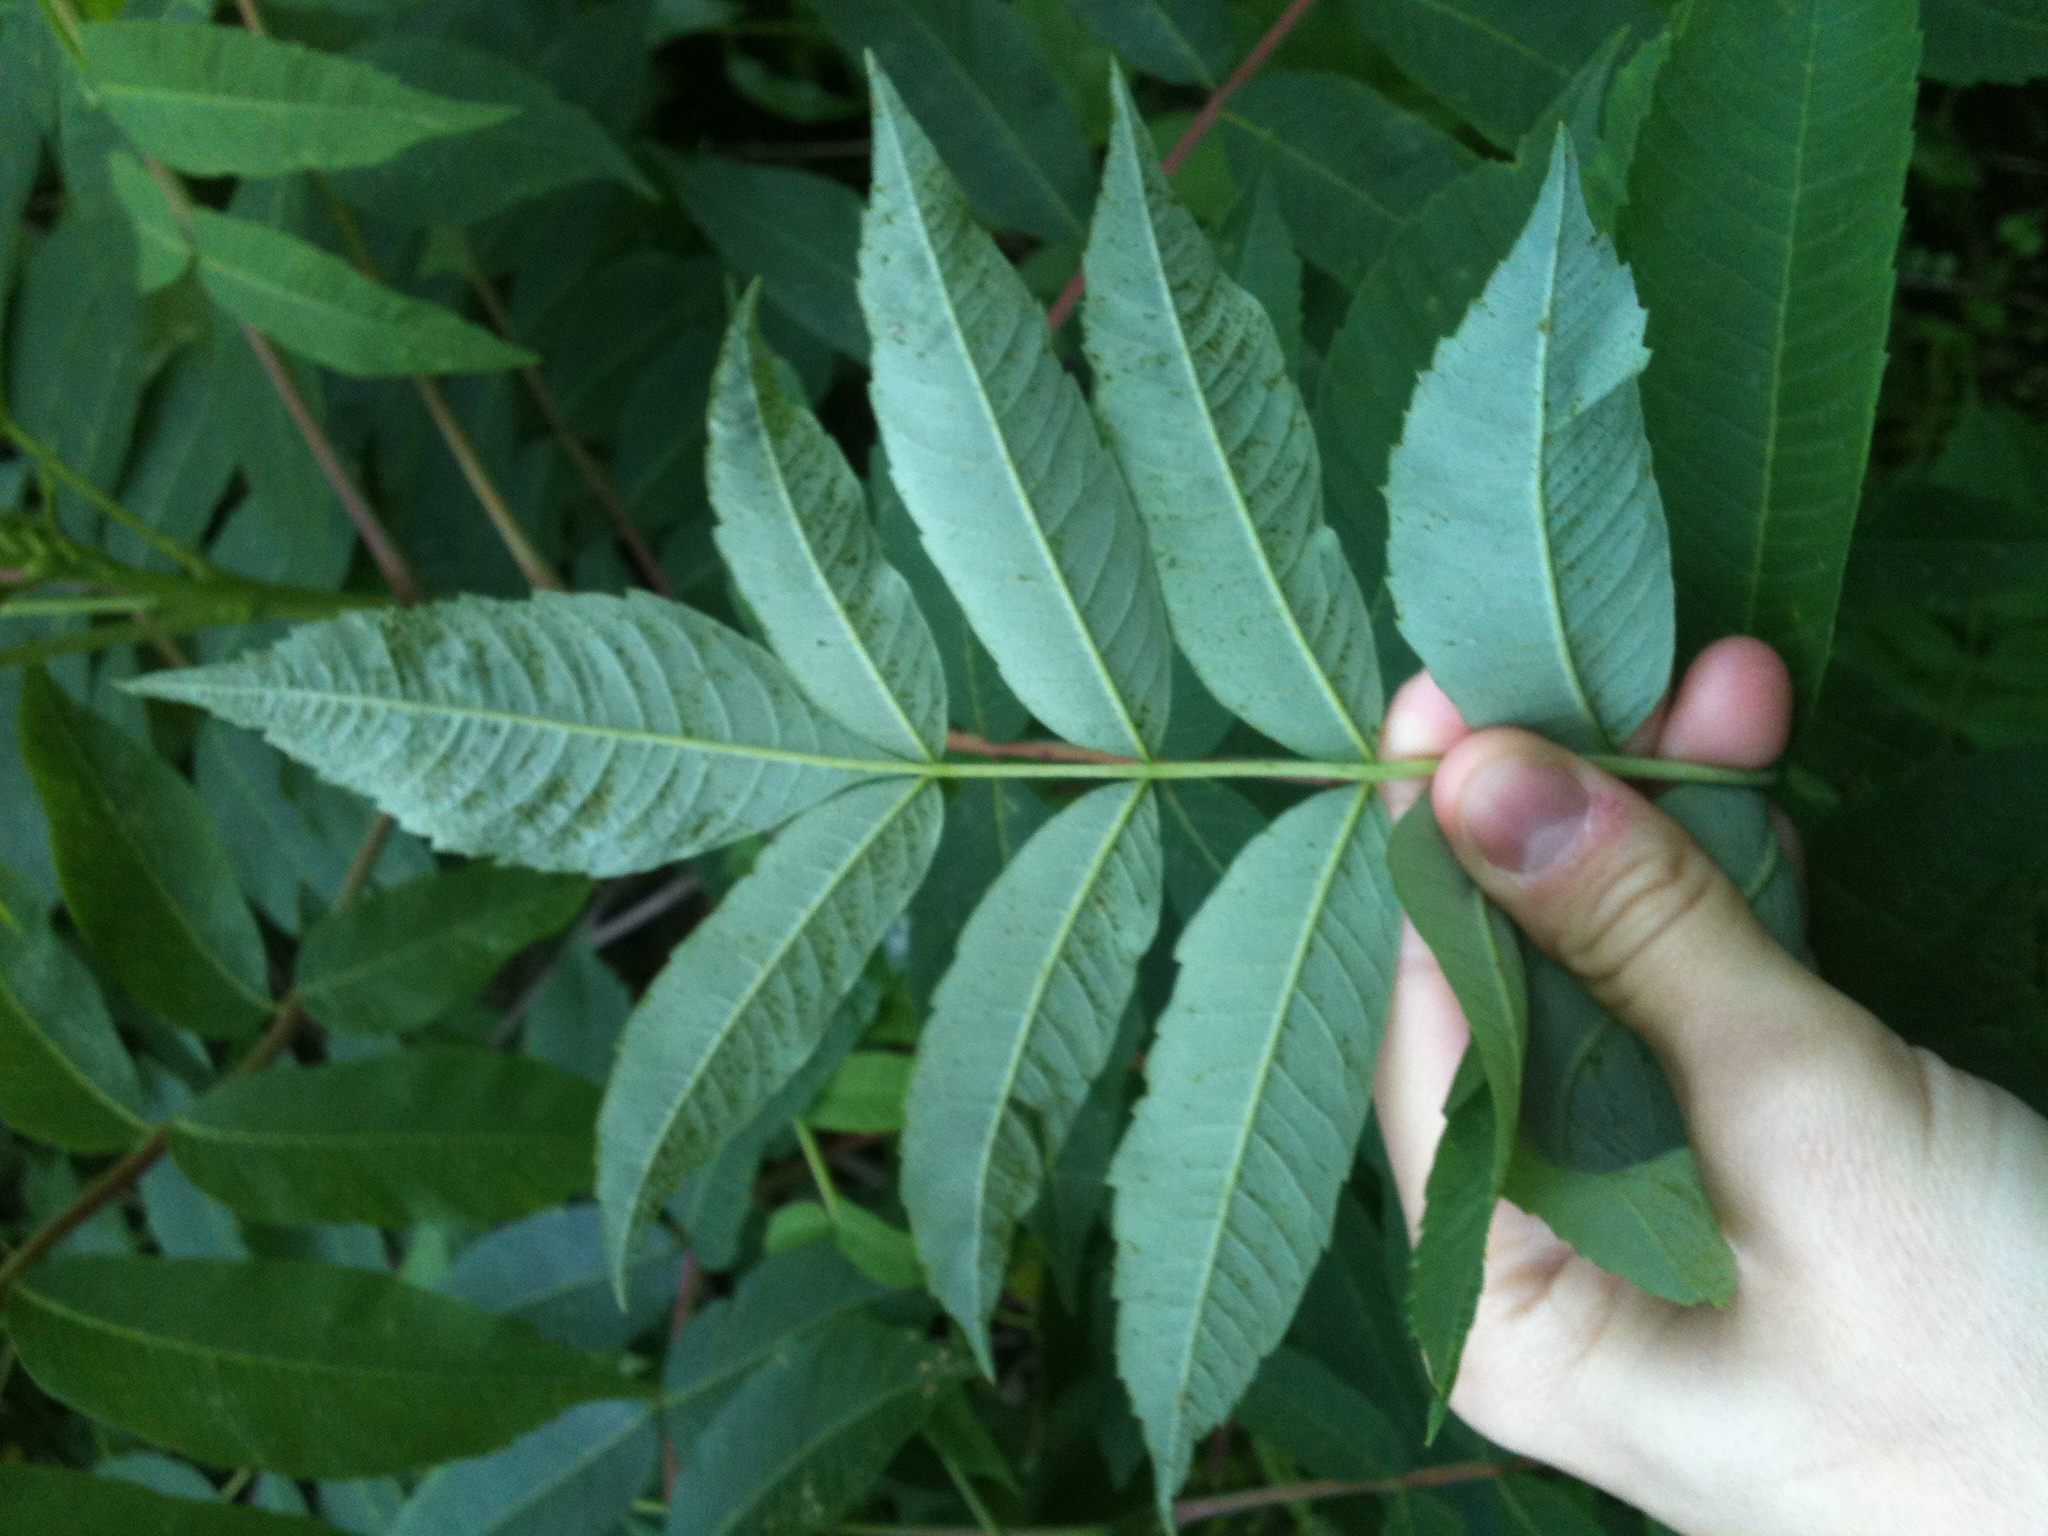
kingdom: Plantae
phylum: Tracheophyta
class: Magnoliopsida
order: Sapindales
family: Anacardiaceae
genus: Rhus
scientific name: Rhus glabra
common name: Scarlet sumac
